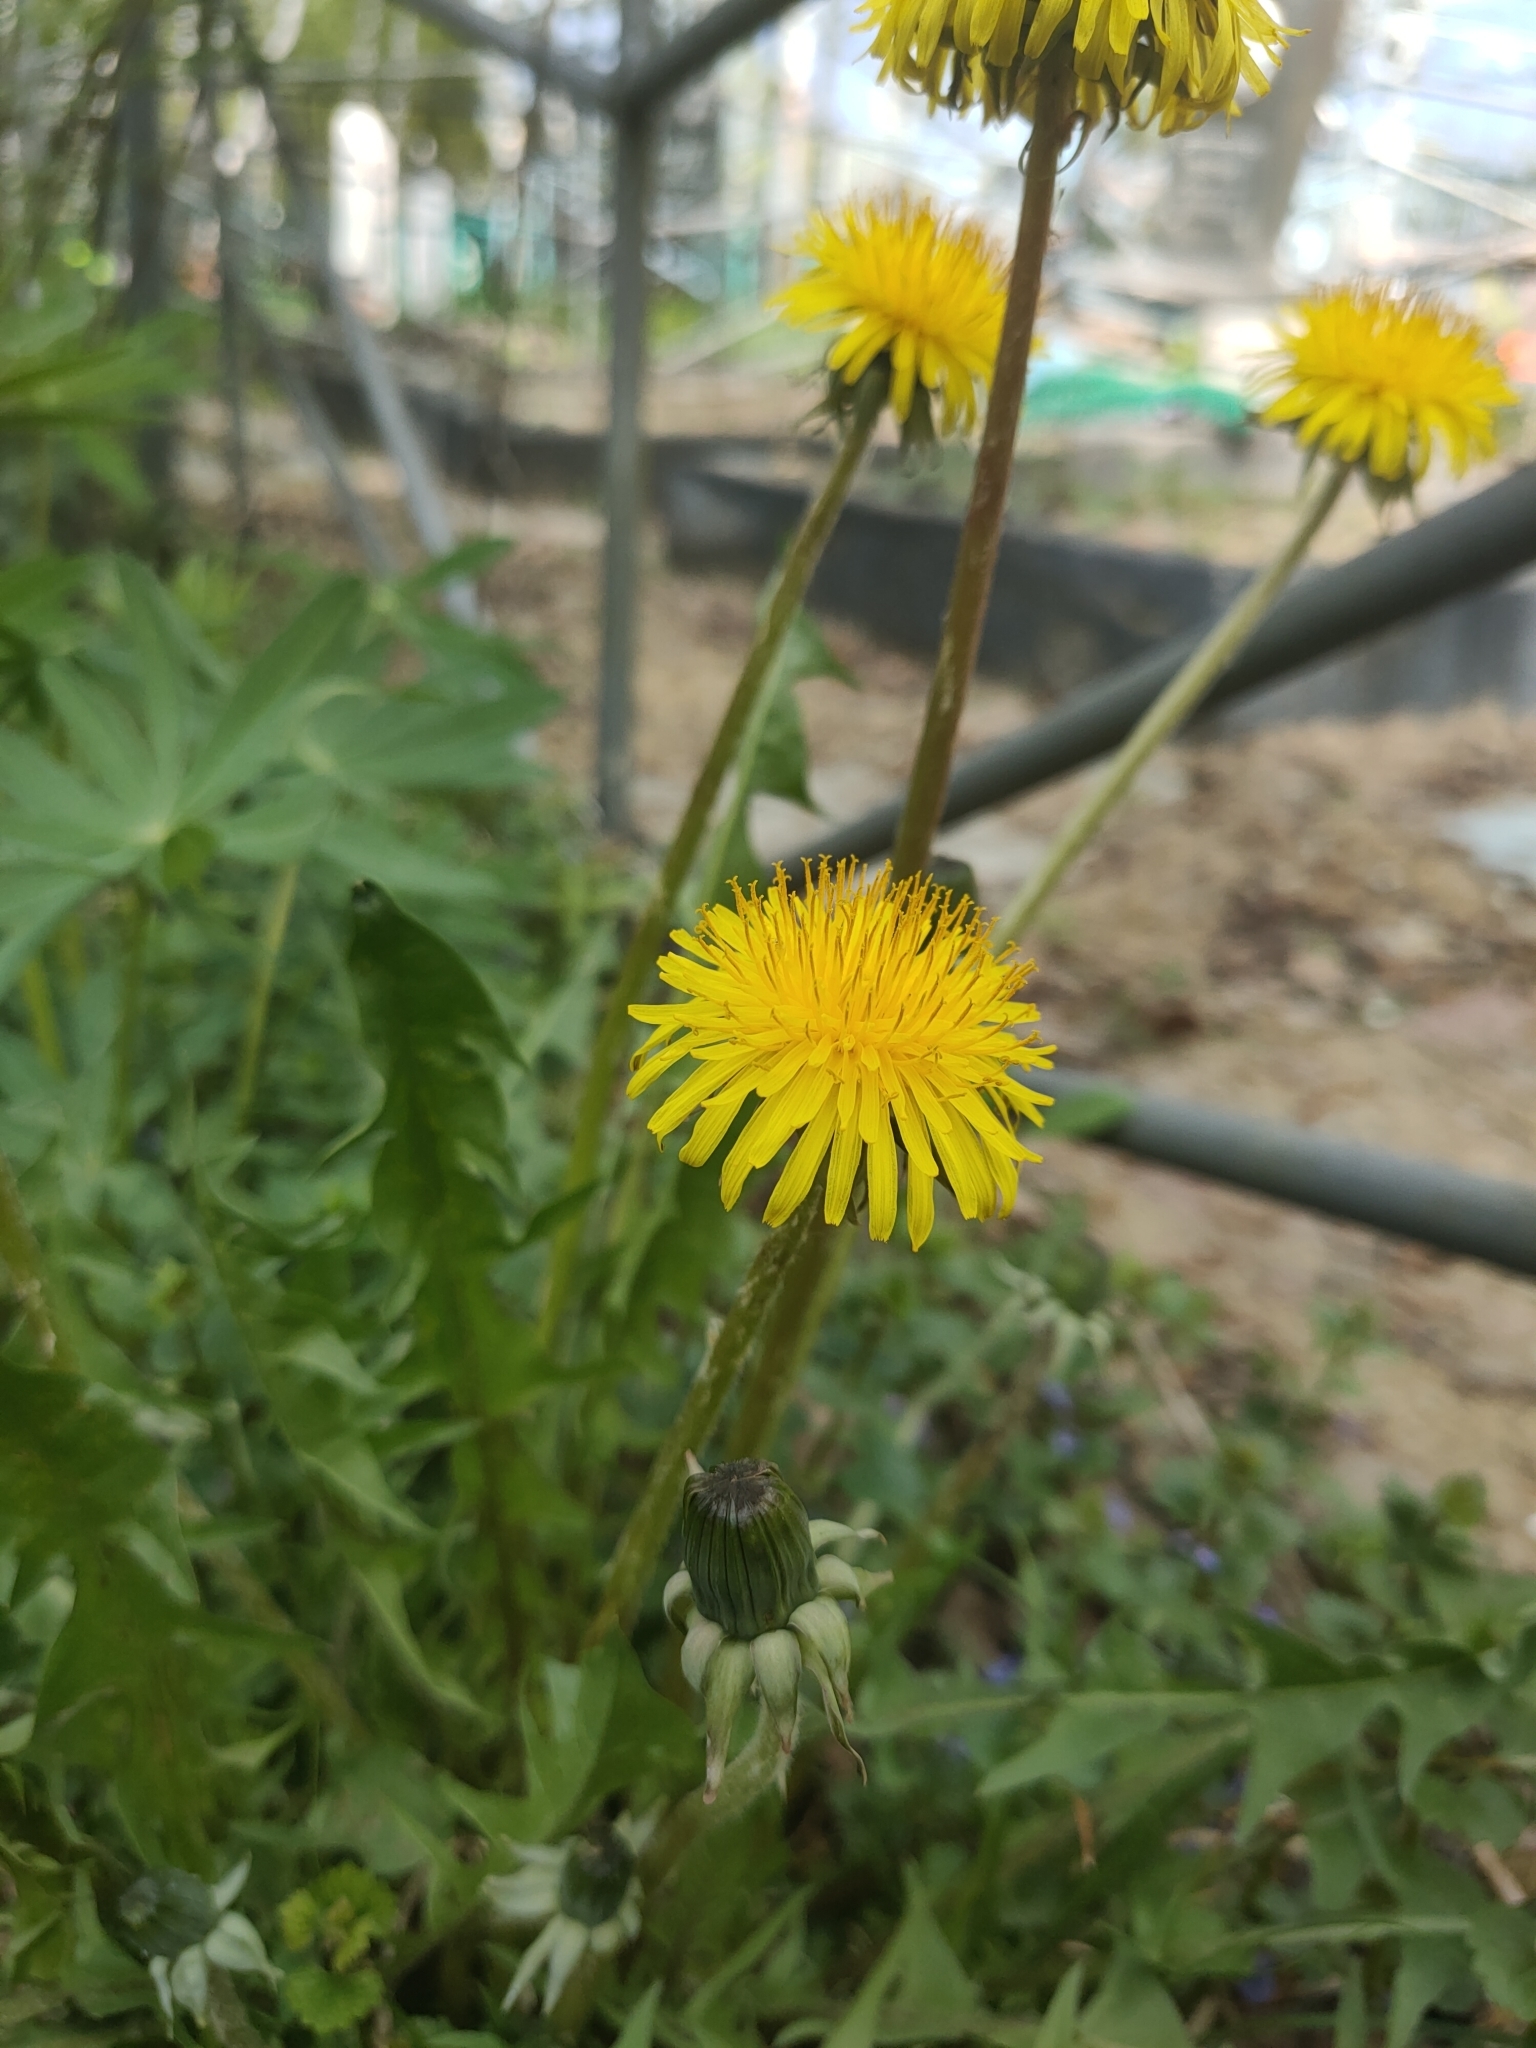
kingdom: Plantae
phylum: Tracheophyta
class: Magnoliopsida
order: Asterales
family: Asteraceae
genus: Taraxacum
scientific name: Taraxacum officinale
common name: Common dandelion
